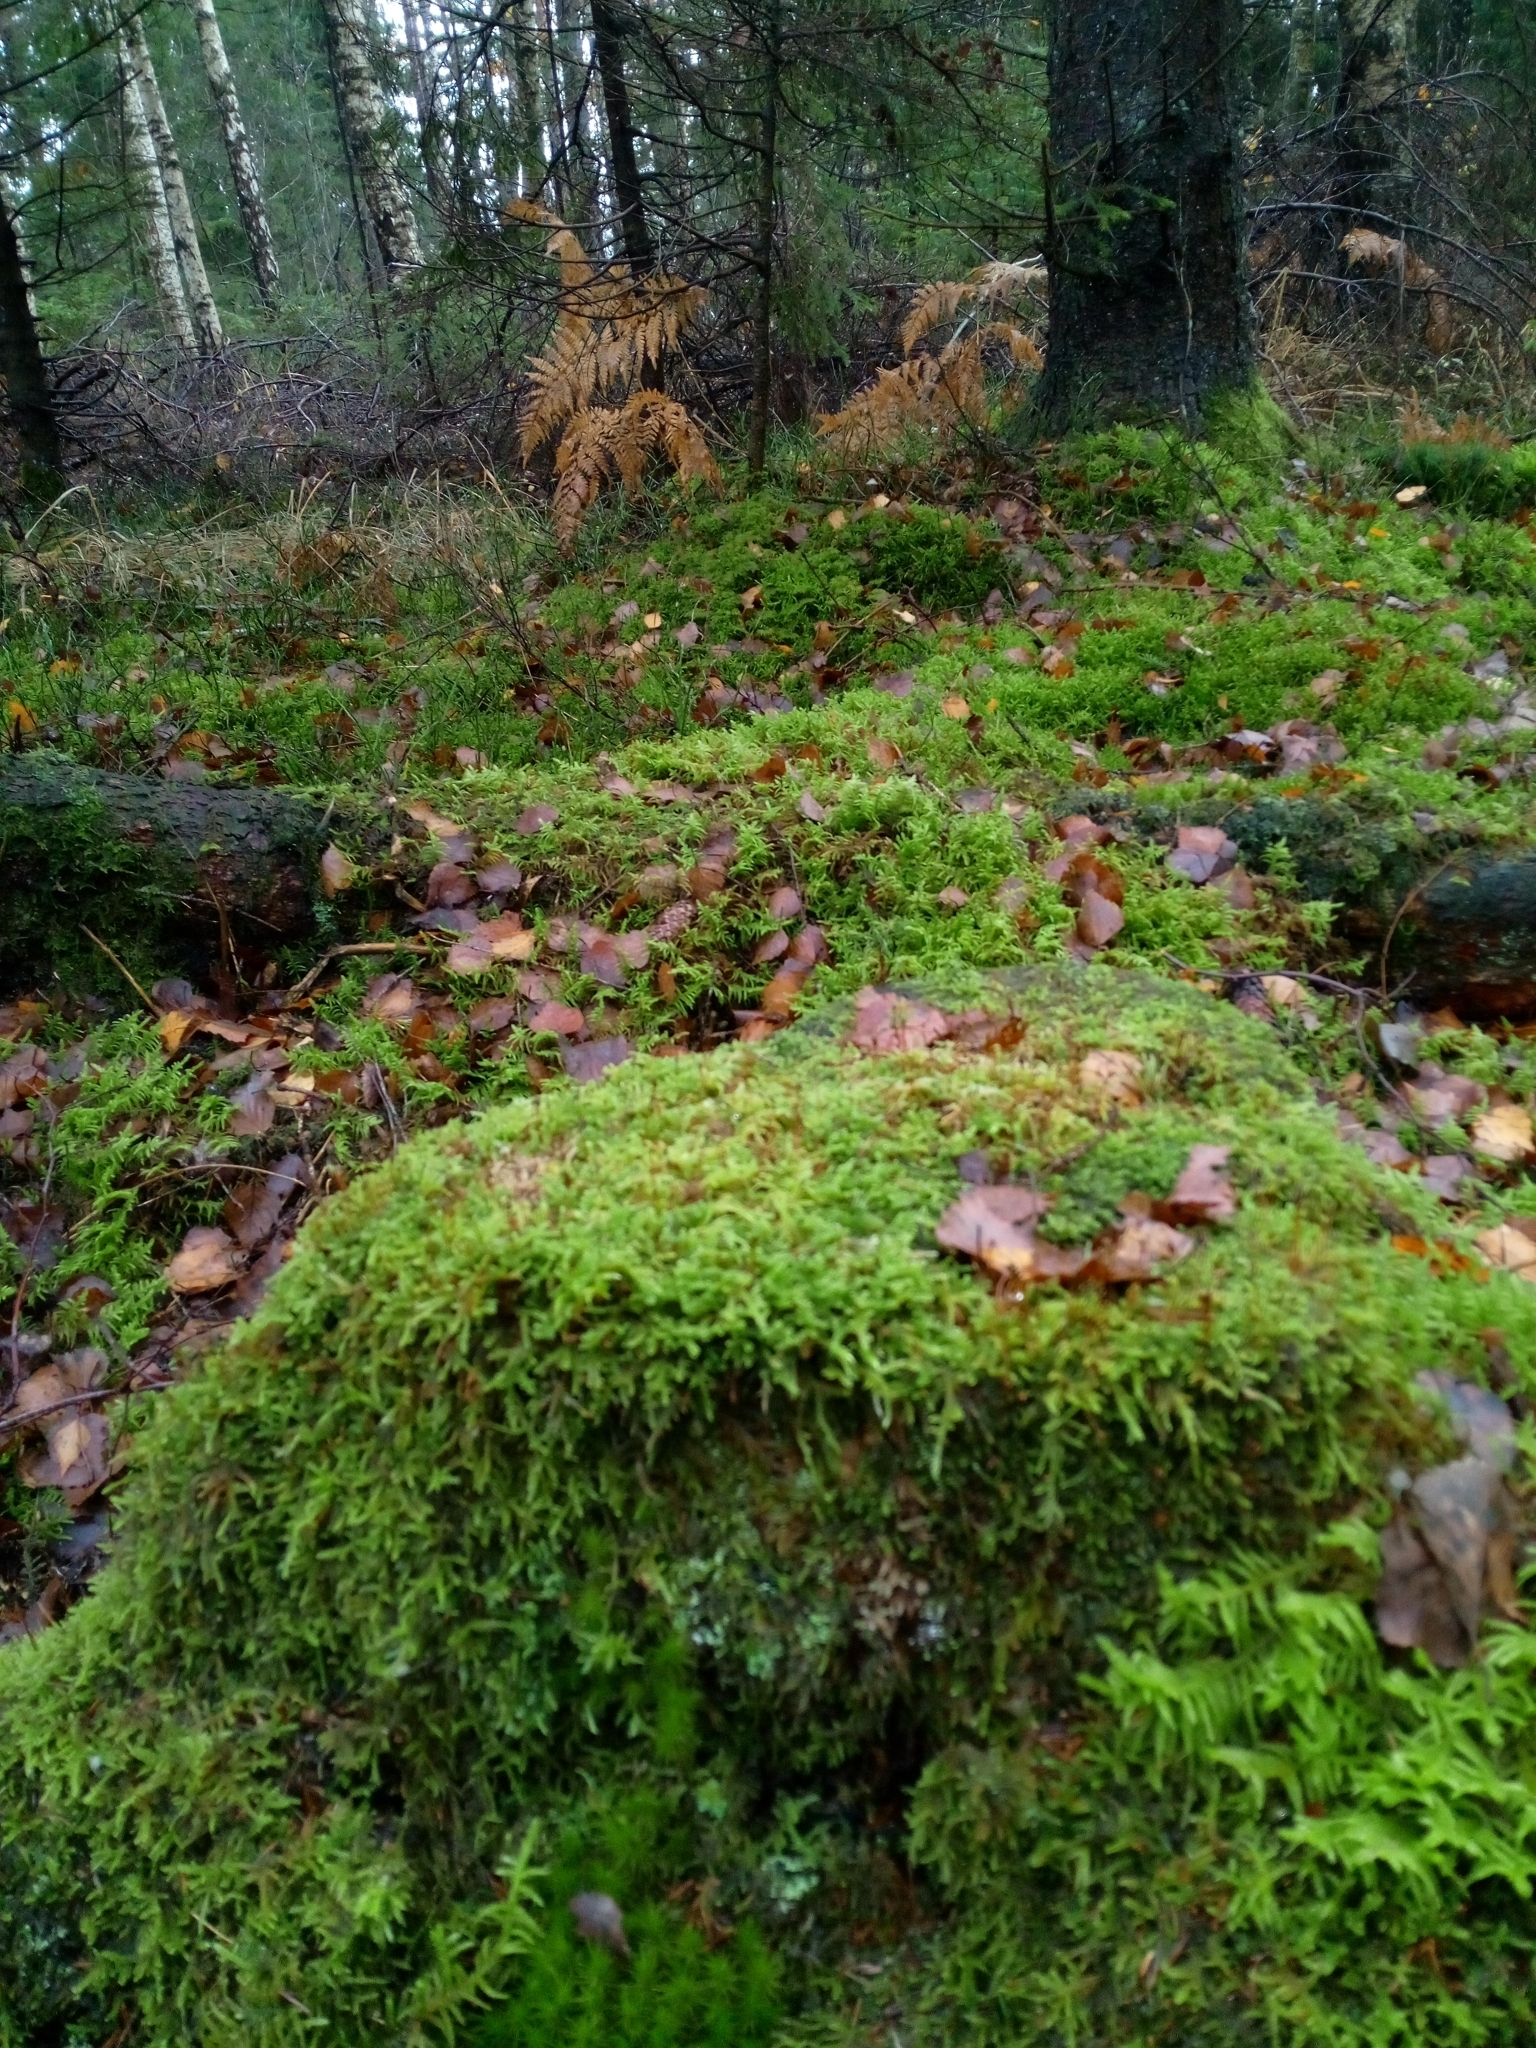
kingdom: Plantae
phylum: Bryophyta
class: Bryopsida
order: Hypnales
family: Hypnaceae
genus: Hypnum
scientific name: Hypnum cupressiforme
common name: Cypress-leaved plait-moss
